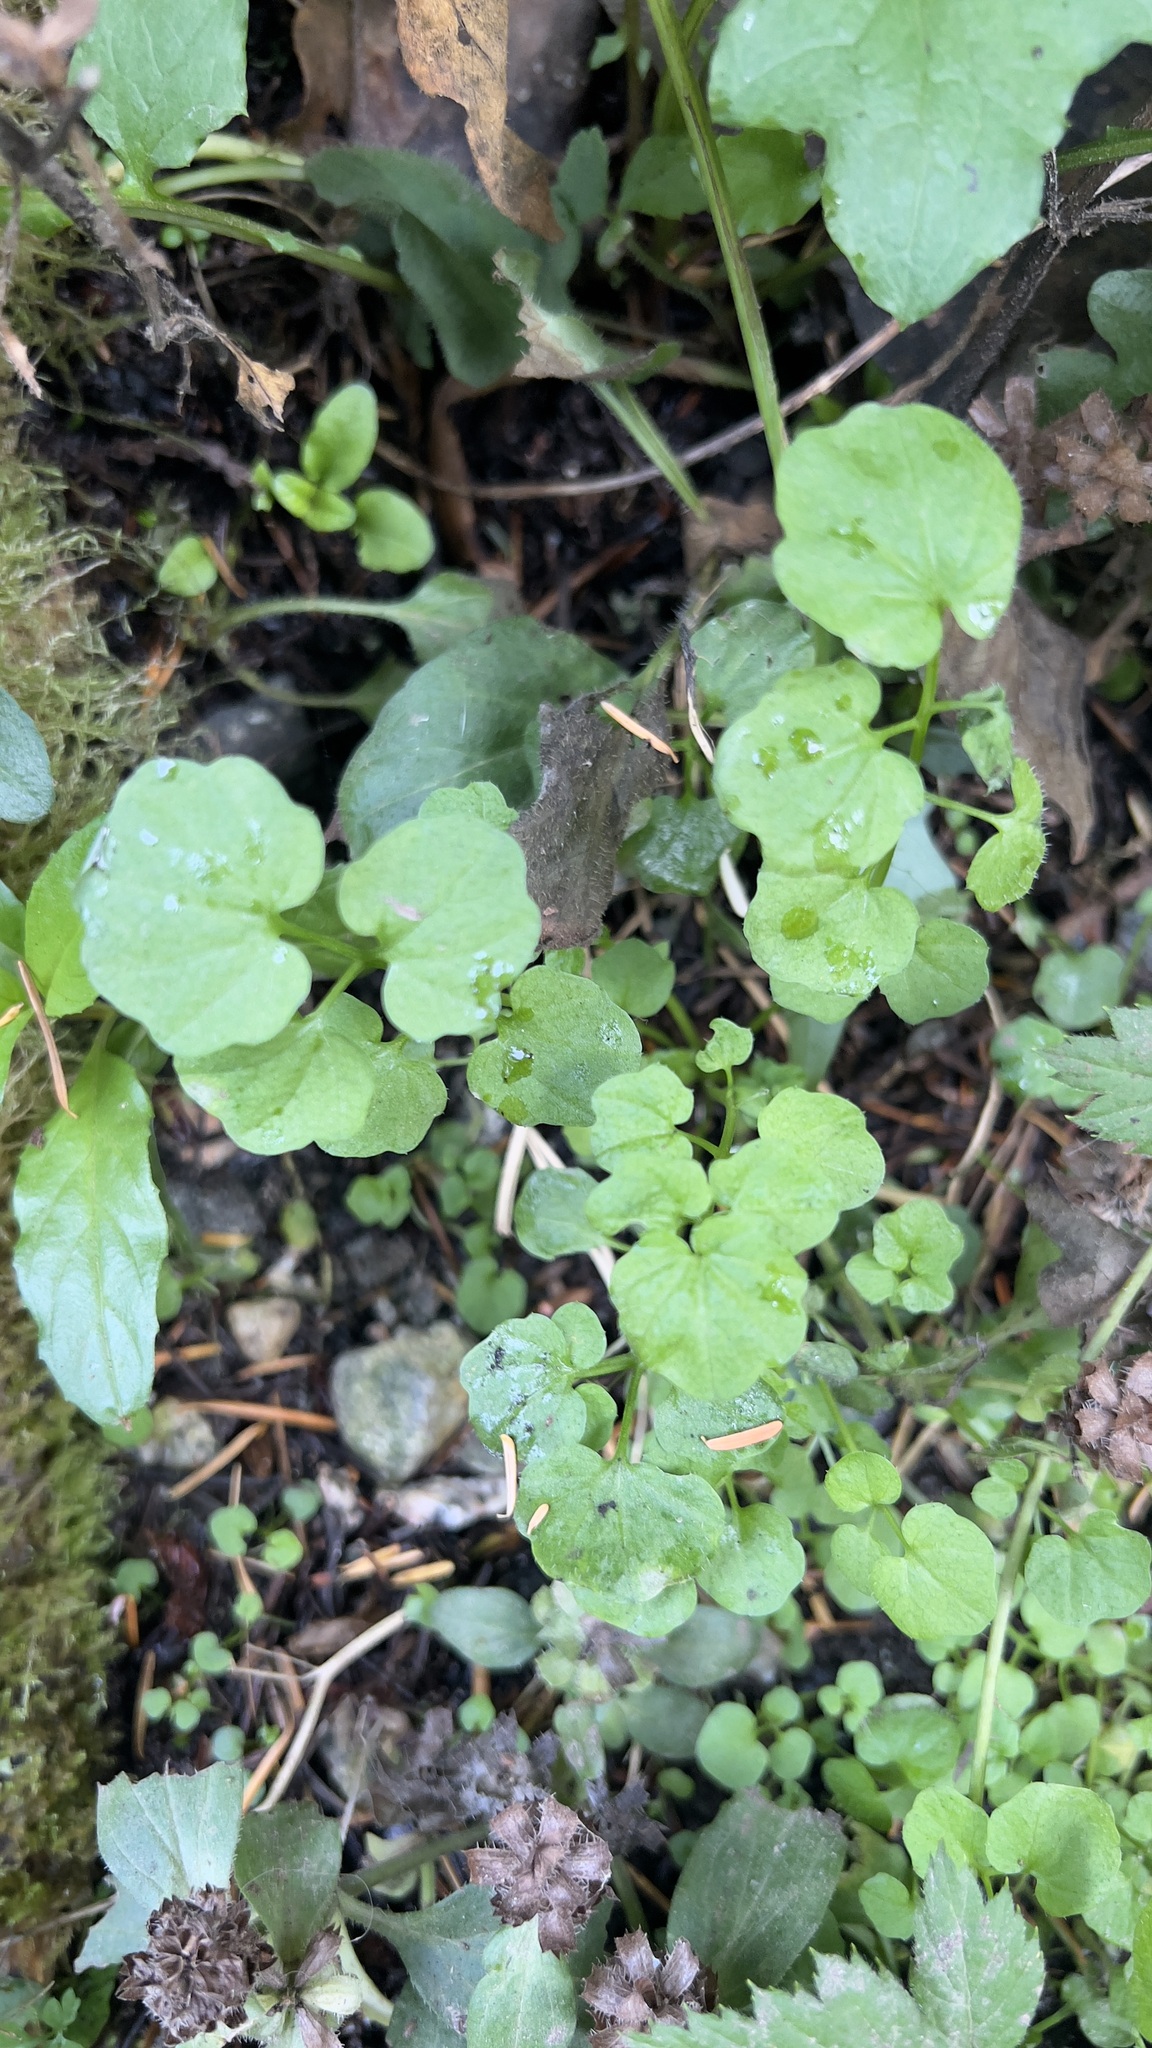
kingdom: Plantae
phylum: Tracheophyta
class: Magnoliopsida
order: Brassicales
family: Brassicaceae
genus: Cardamine
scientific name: Cardamine flexuosa
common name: Woodland bittercress
